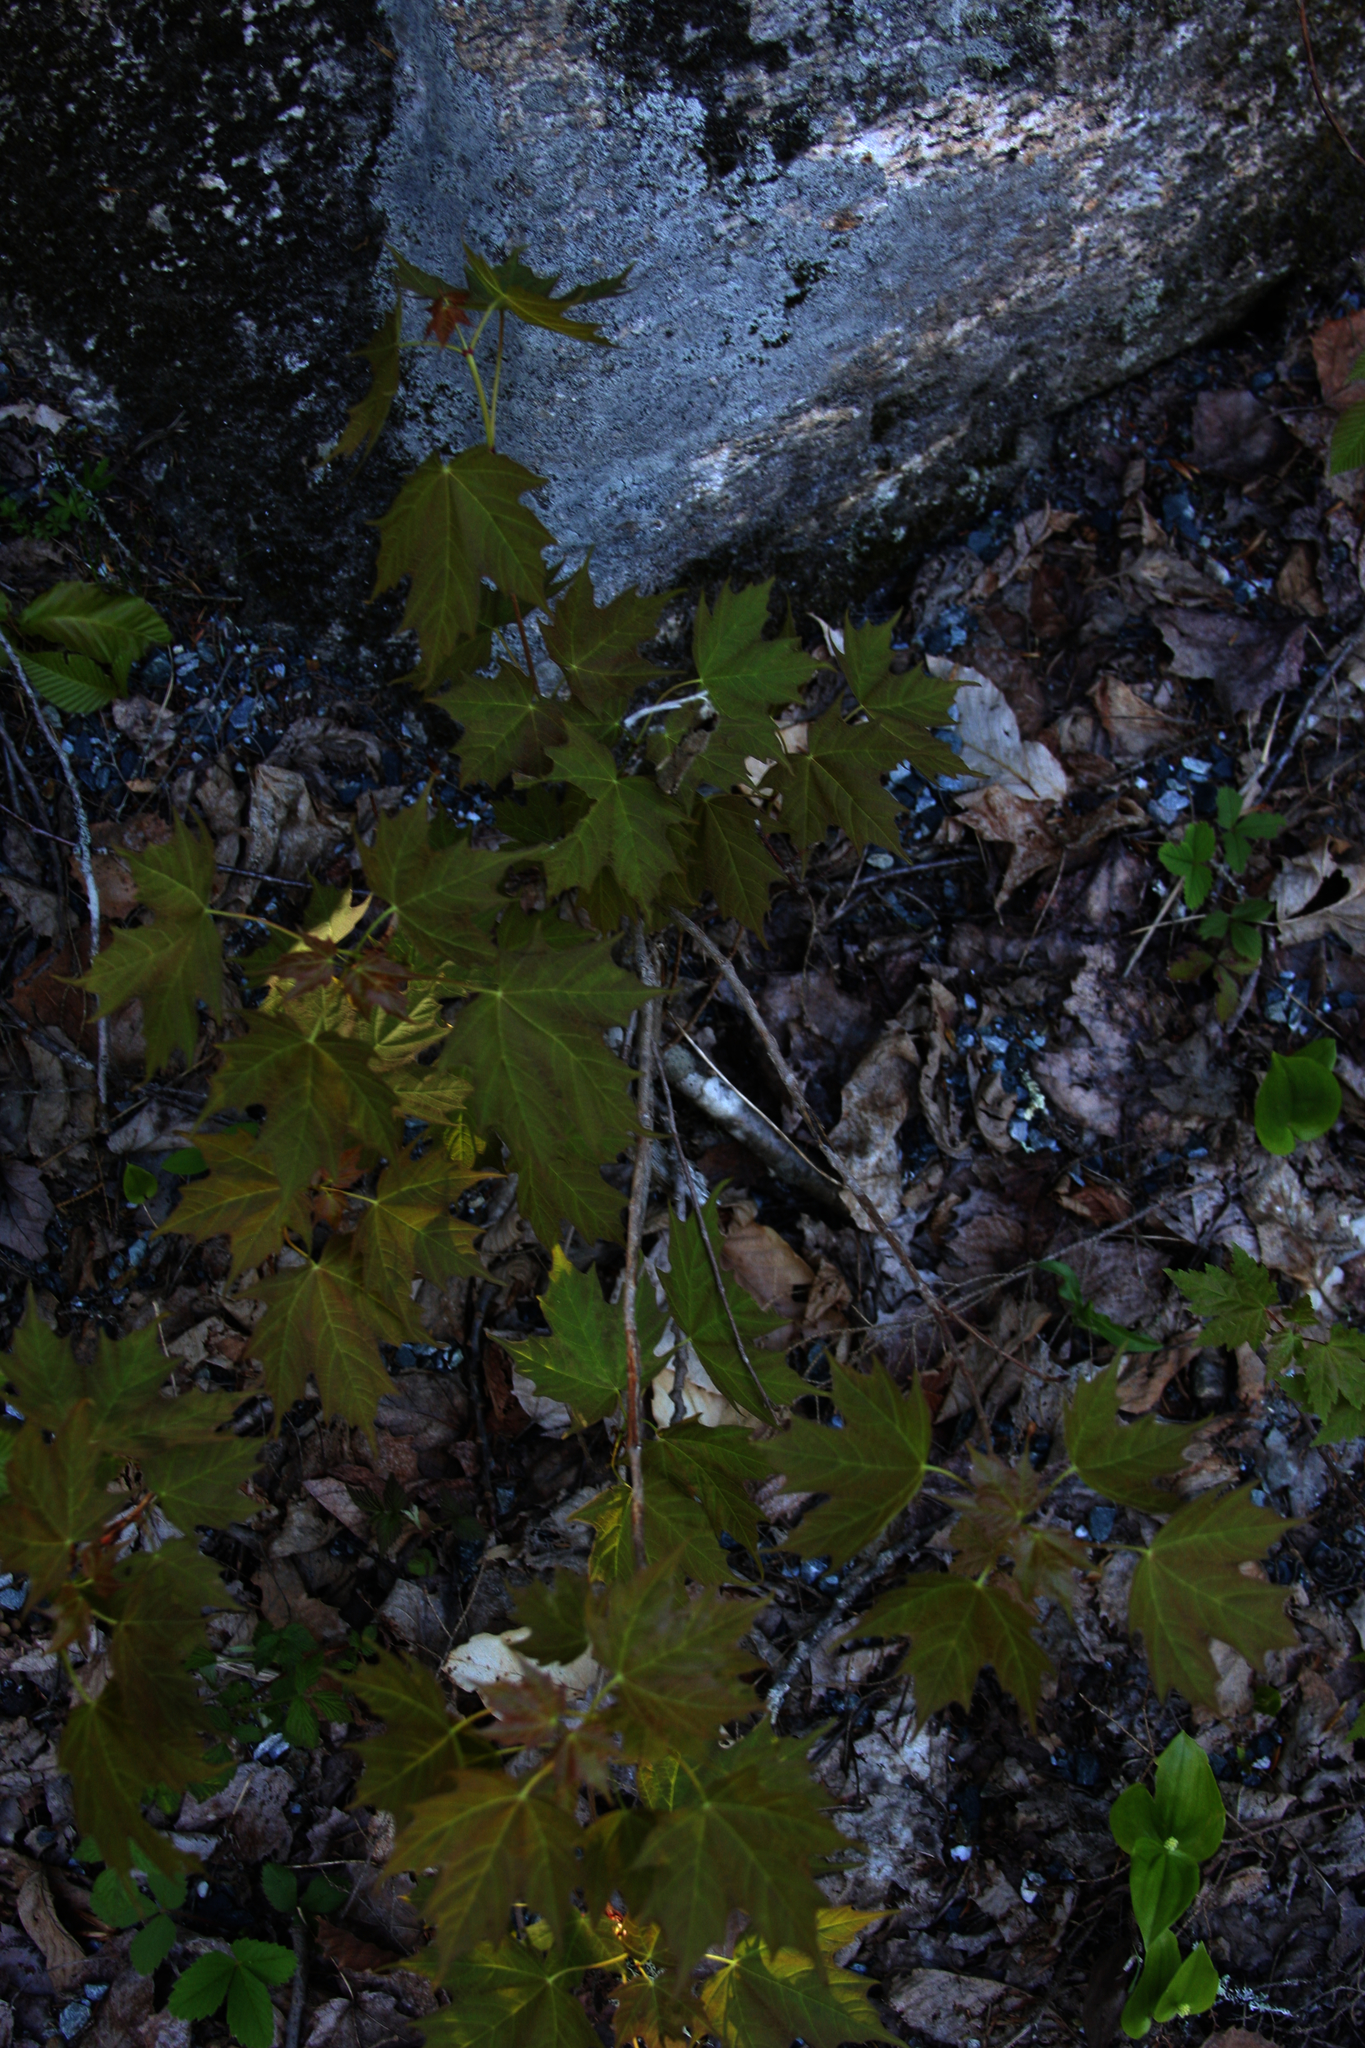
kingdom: Plantae
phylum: Tracheophyta
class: Magnoliopsida
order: Sapindales
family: Sapindaceae
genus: Acer
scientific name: Acer saccharum
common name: Sugar maple
